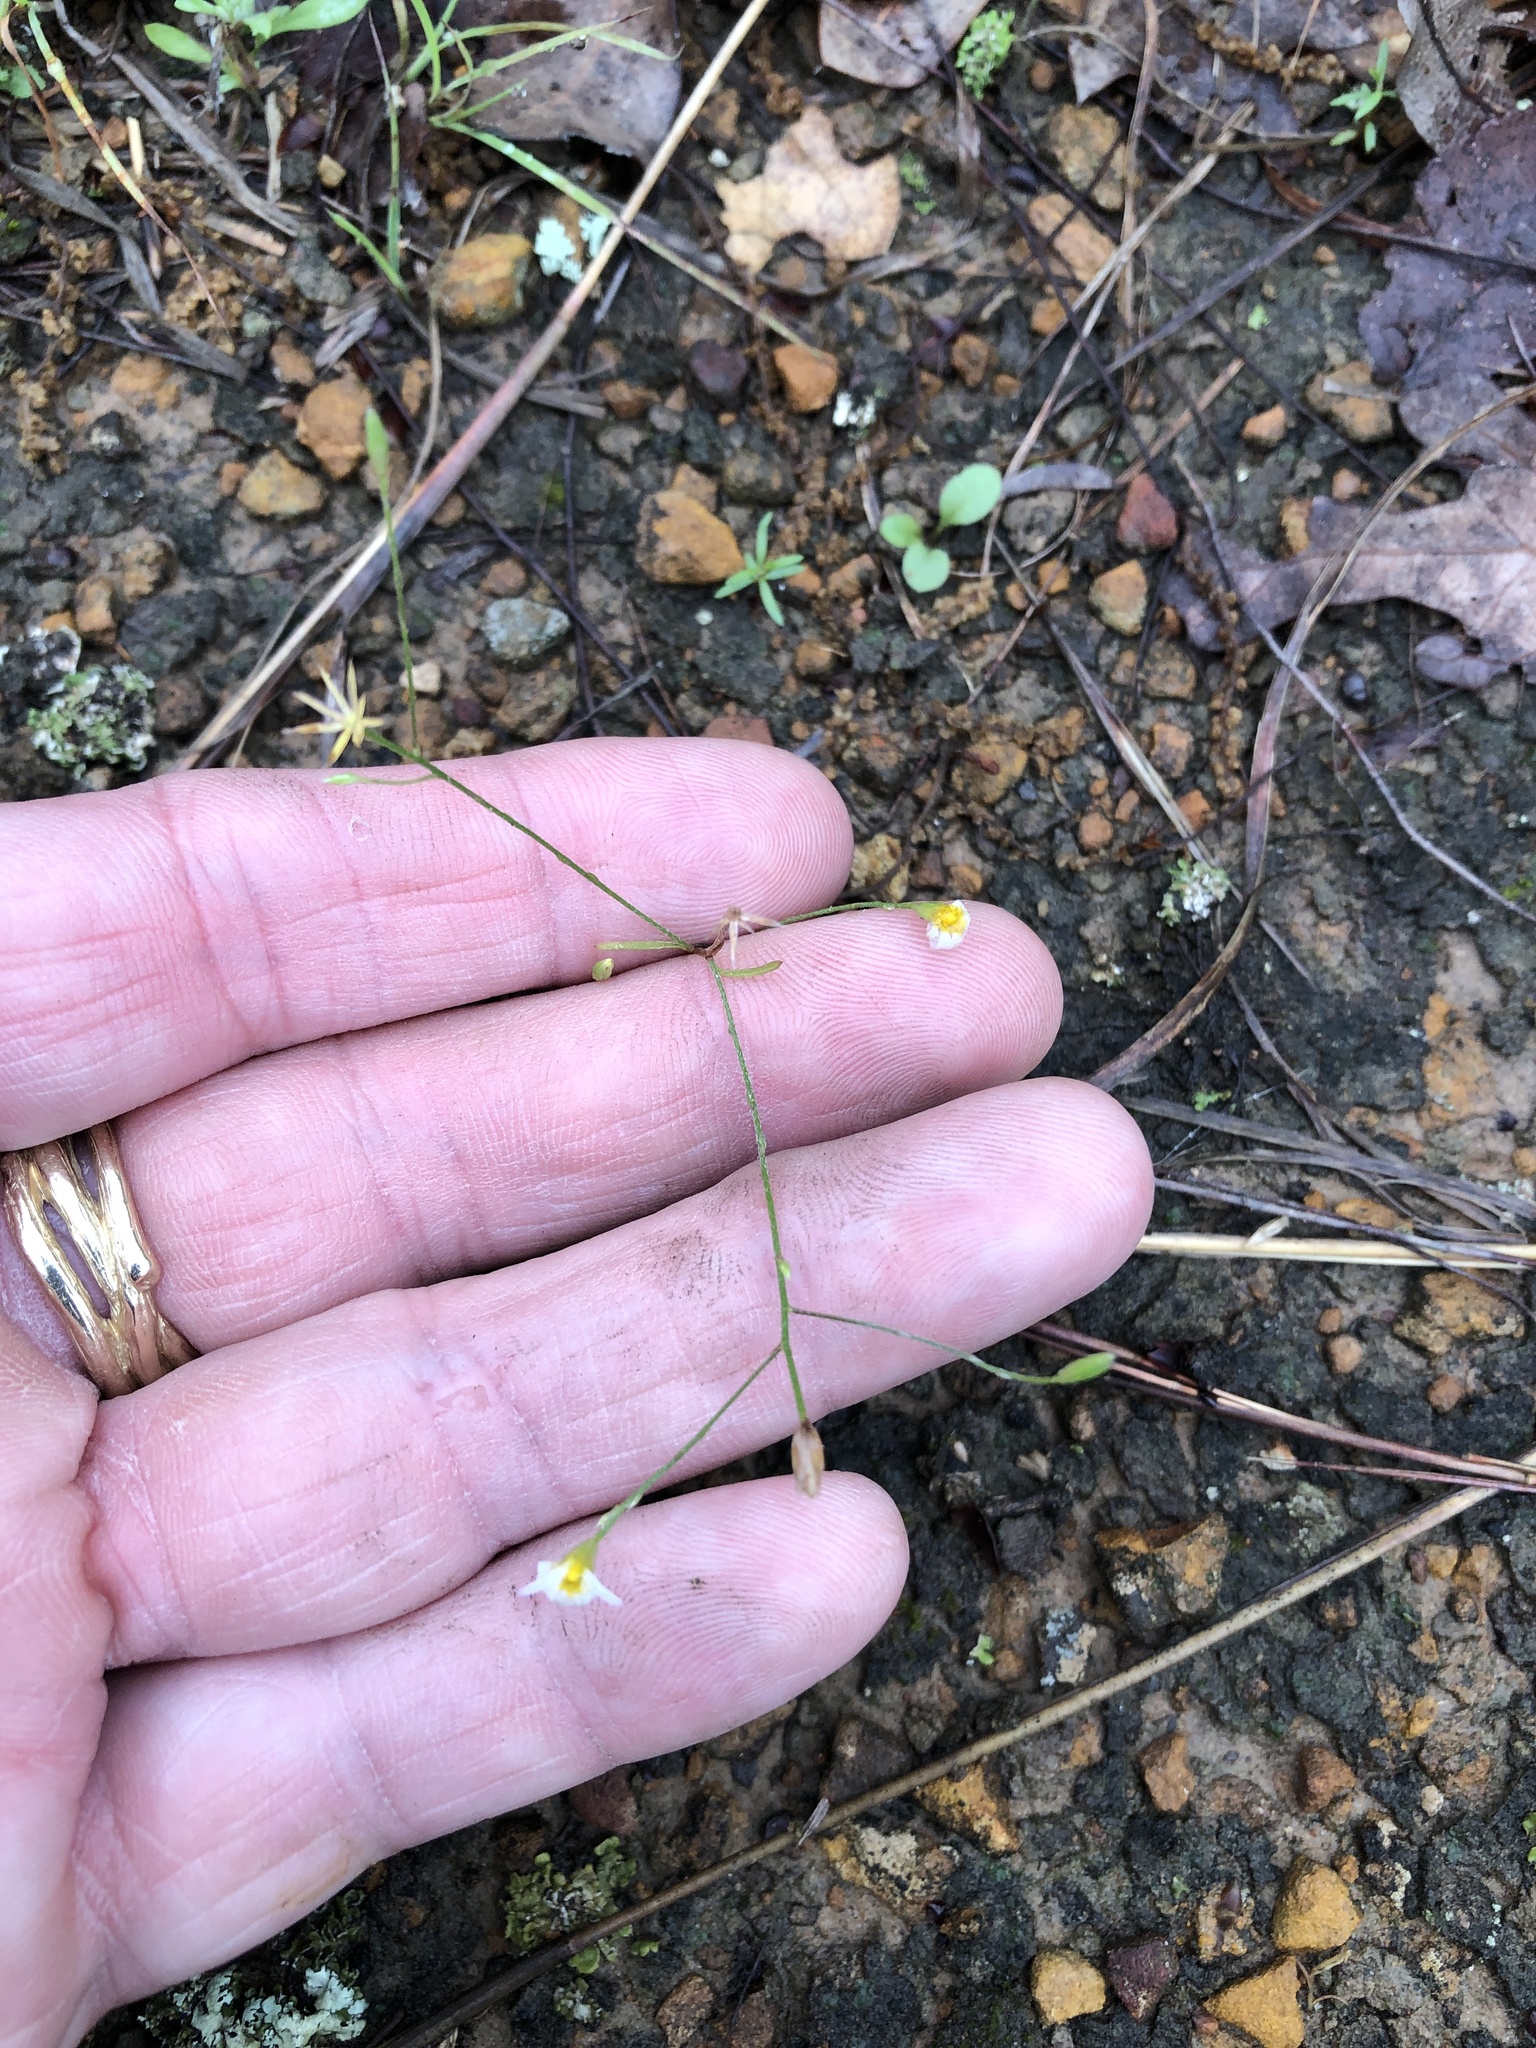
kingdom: Plantae
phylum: Tracheophyta
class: Magnoliopsida
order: Asterales
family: Asteraceae
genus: Chaetopappa
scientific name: Chaetopappa asteroides
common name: Tiny lazy daisy
